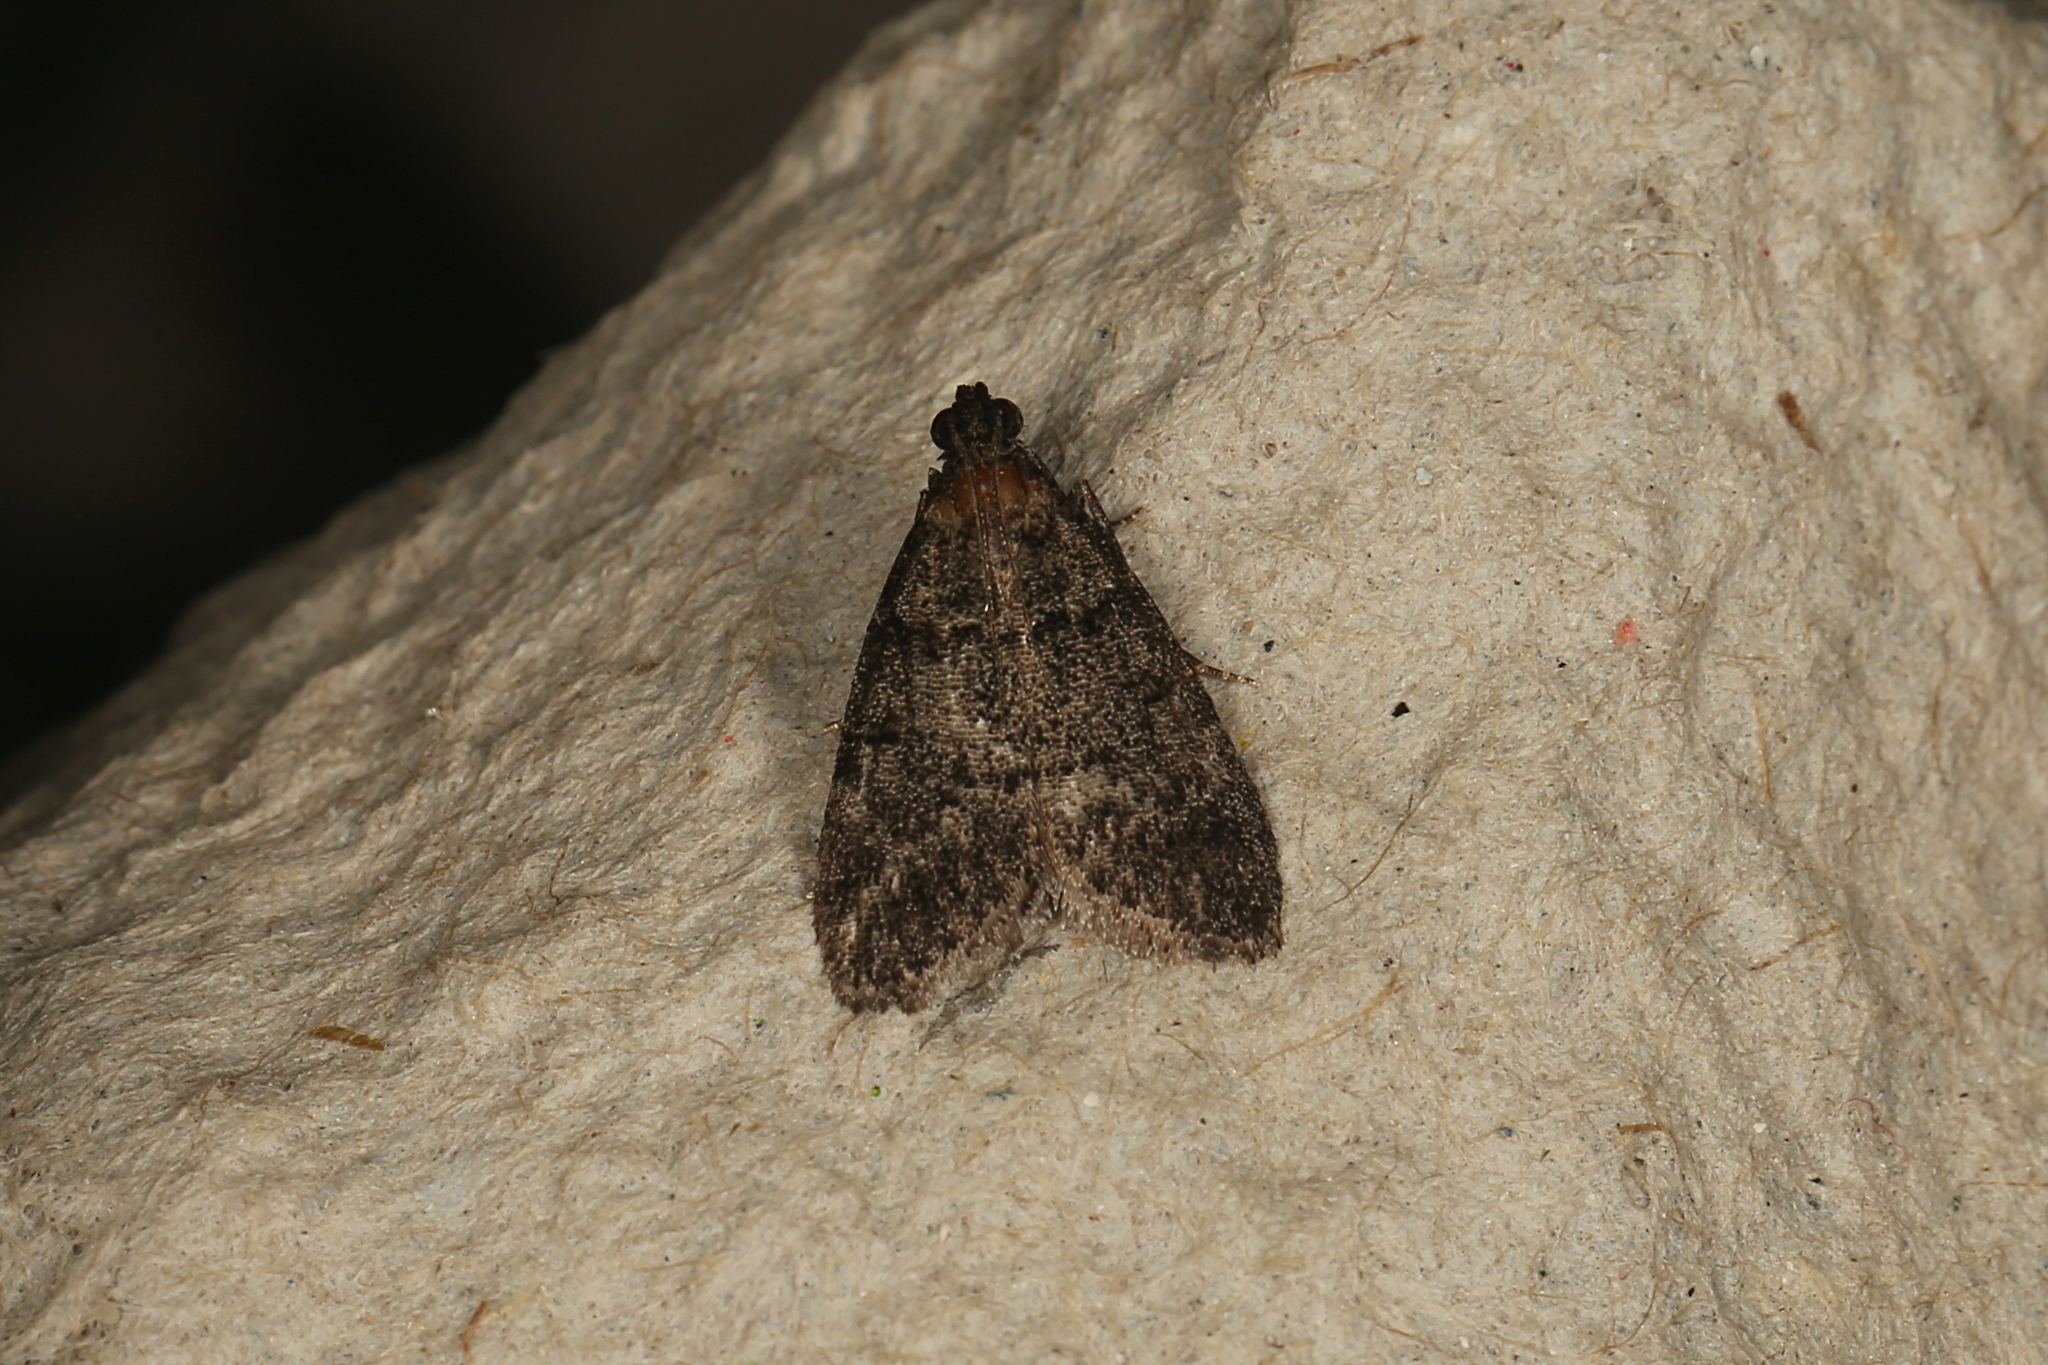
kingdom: Animalia
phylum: Arthropoda
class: Insecta
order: Lepidoptera
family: Pyralidae
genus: Nyctereutica
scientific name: Nyctereutica melanophorella
